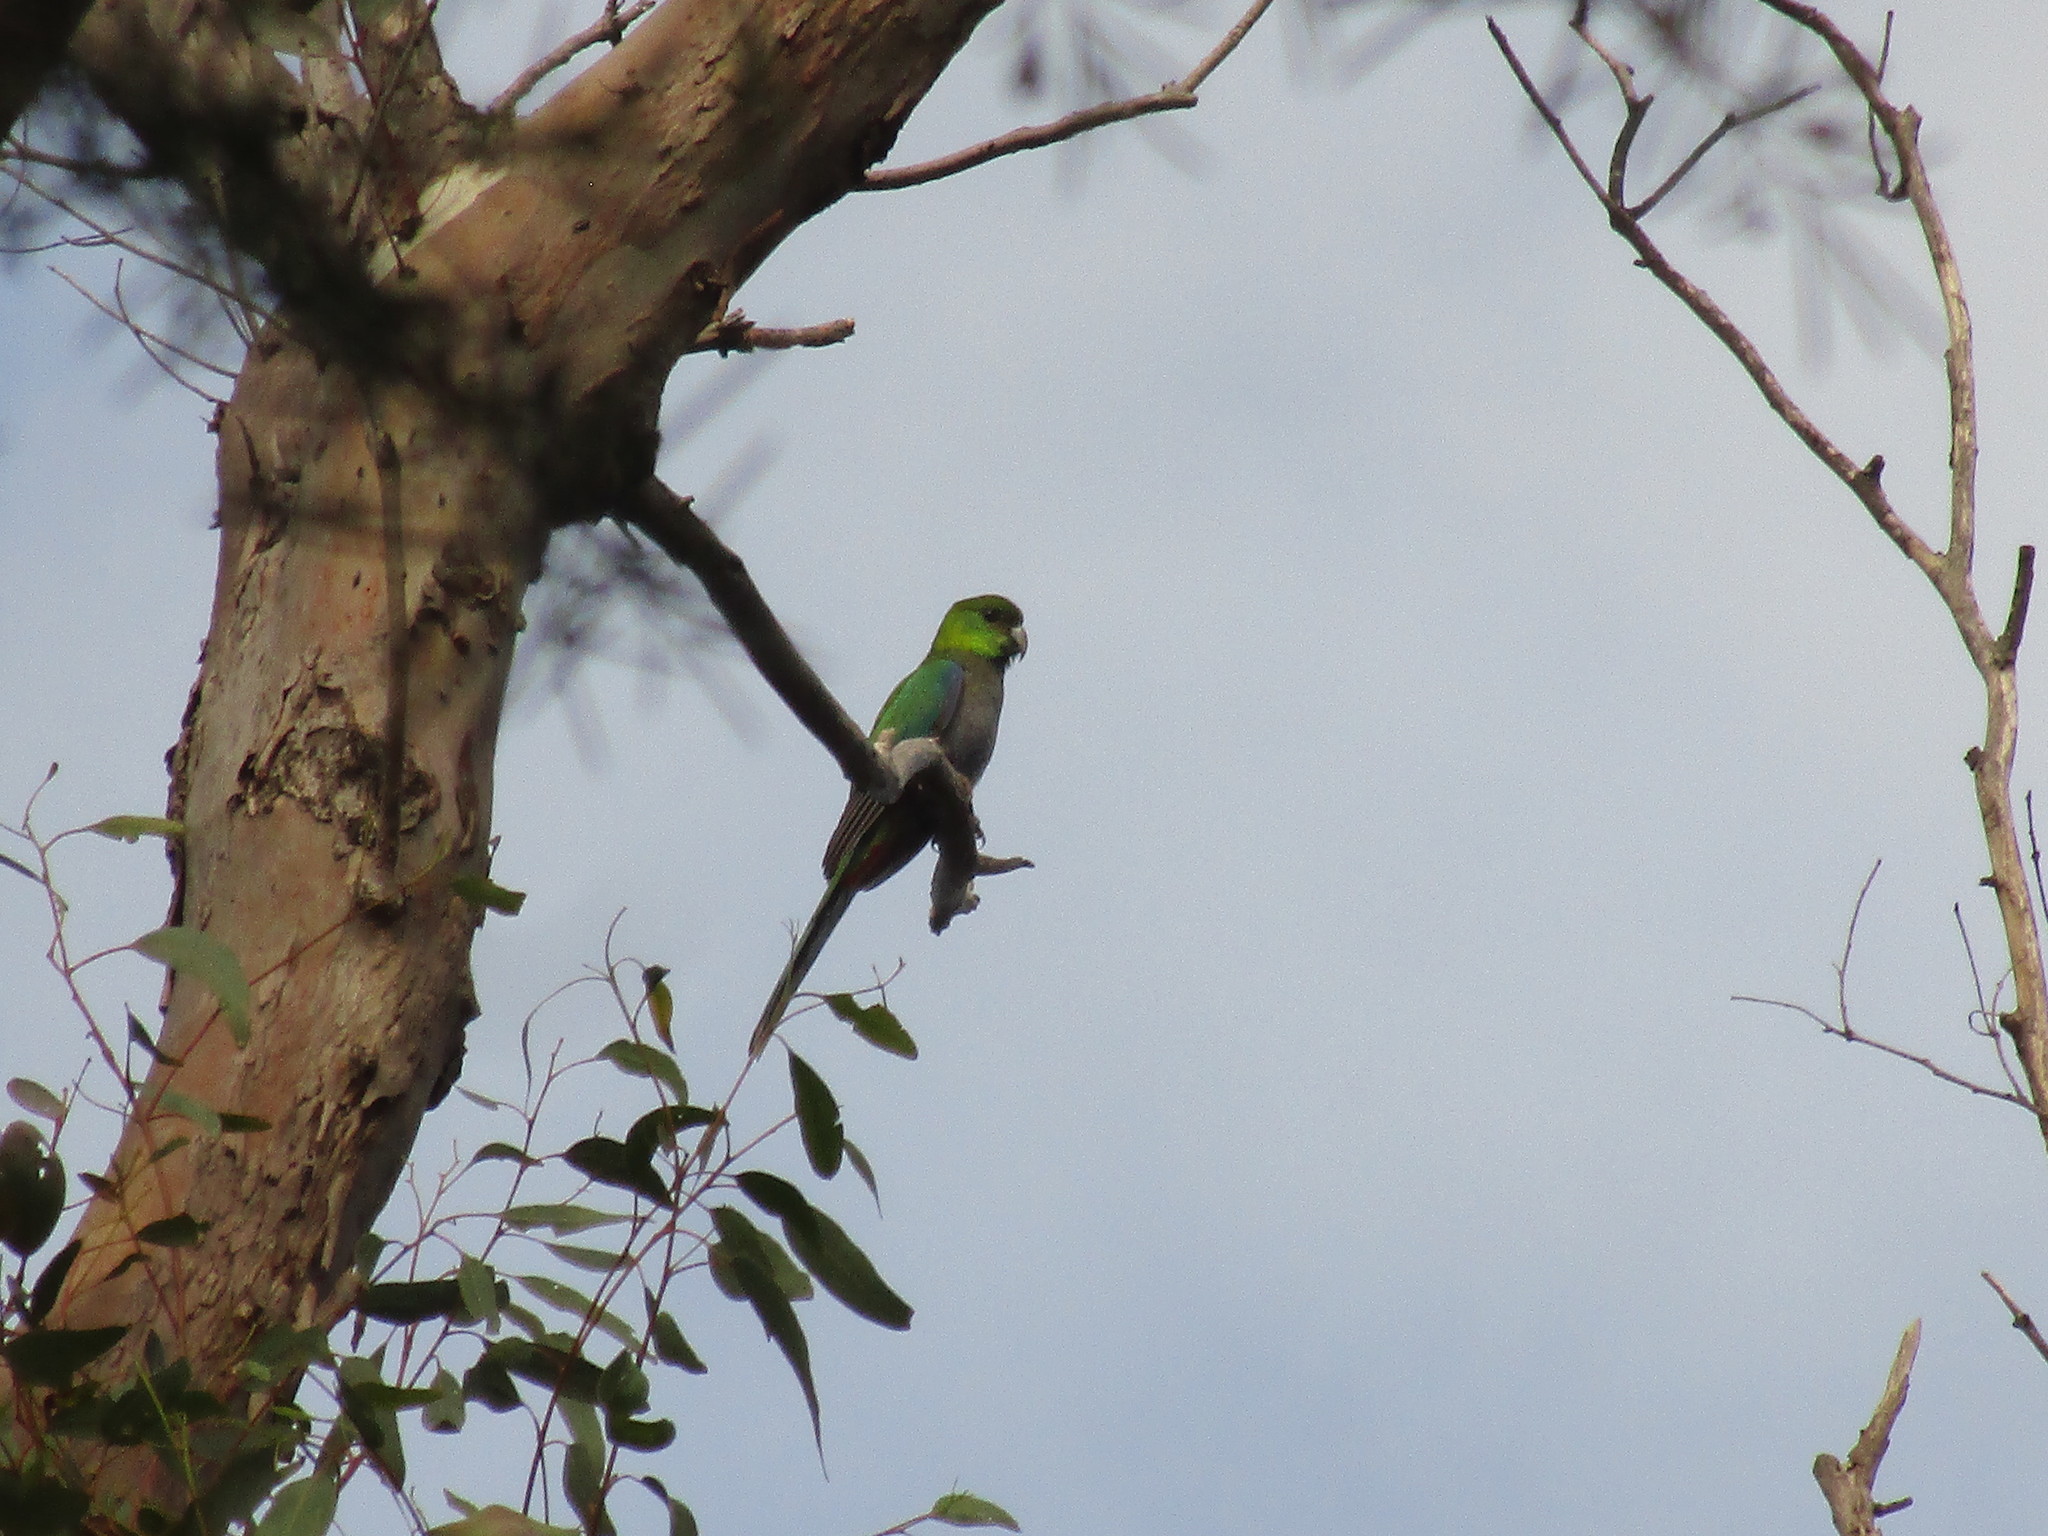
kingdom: Animalia
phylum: Chordata
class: Aves
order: Psittaciformes
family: Psittacidae
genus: Purpureicephalus
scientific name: Purpureicephalus spurius
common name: Red-capped parrot
